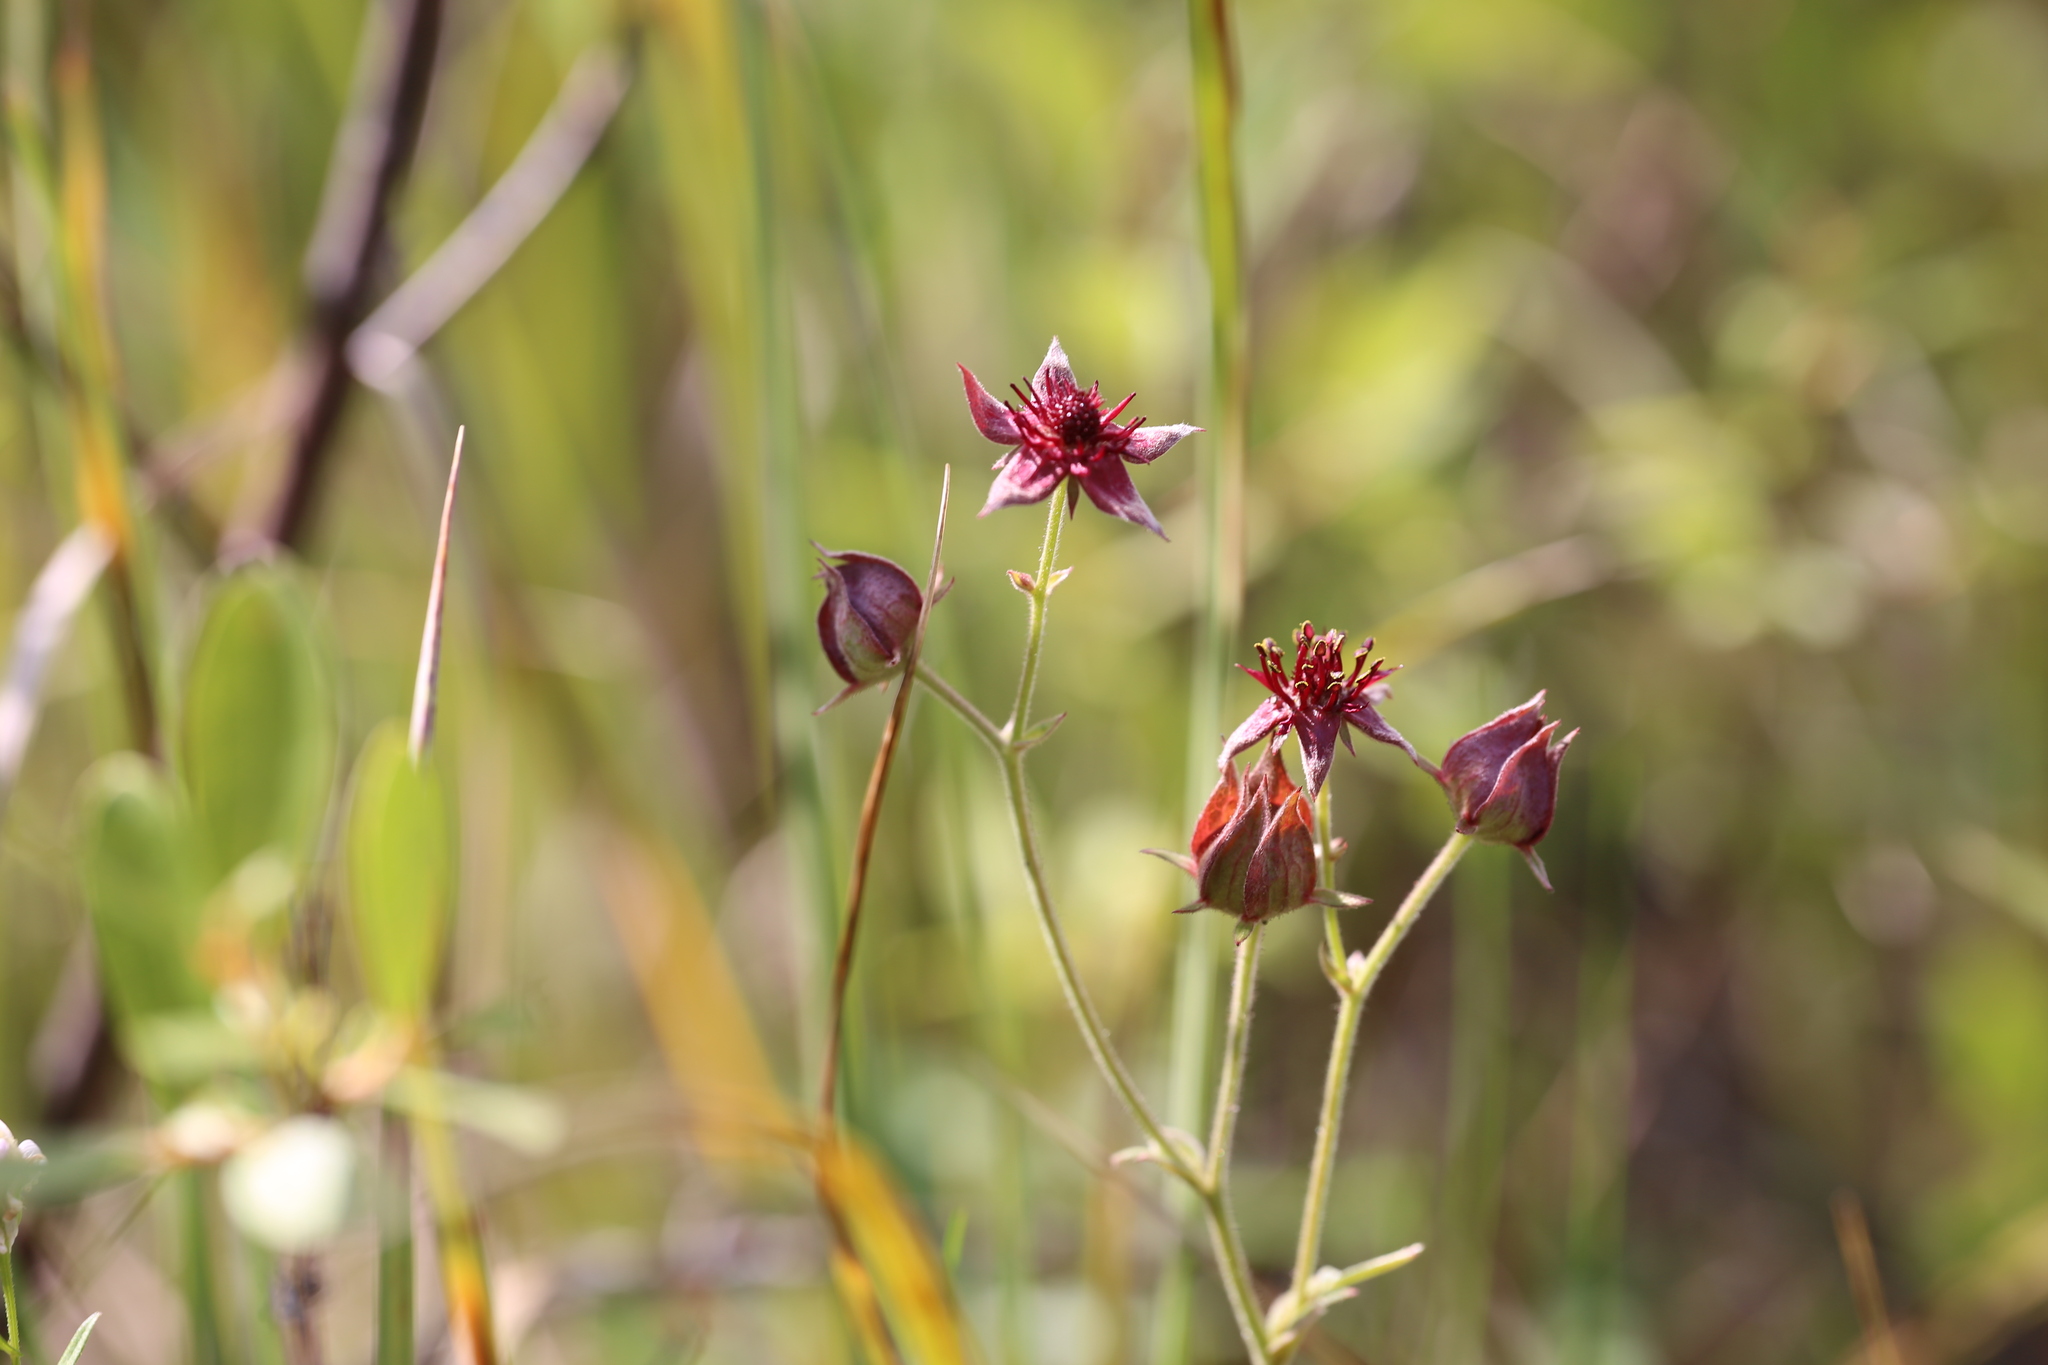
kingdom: Plantae
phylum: Tracheophyta
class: Magnoliopsida
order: Rosales
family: Rosaceae
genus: Comarum
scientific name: Comarum palustre
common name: Marsh cinquefoil
